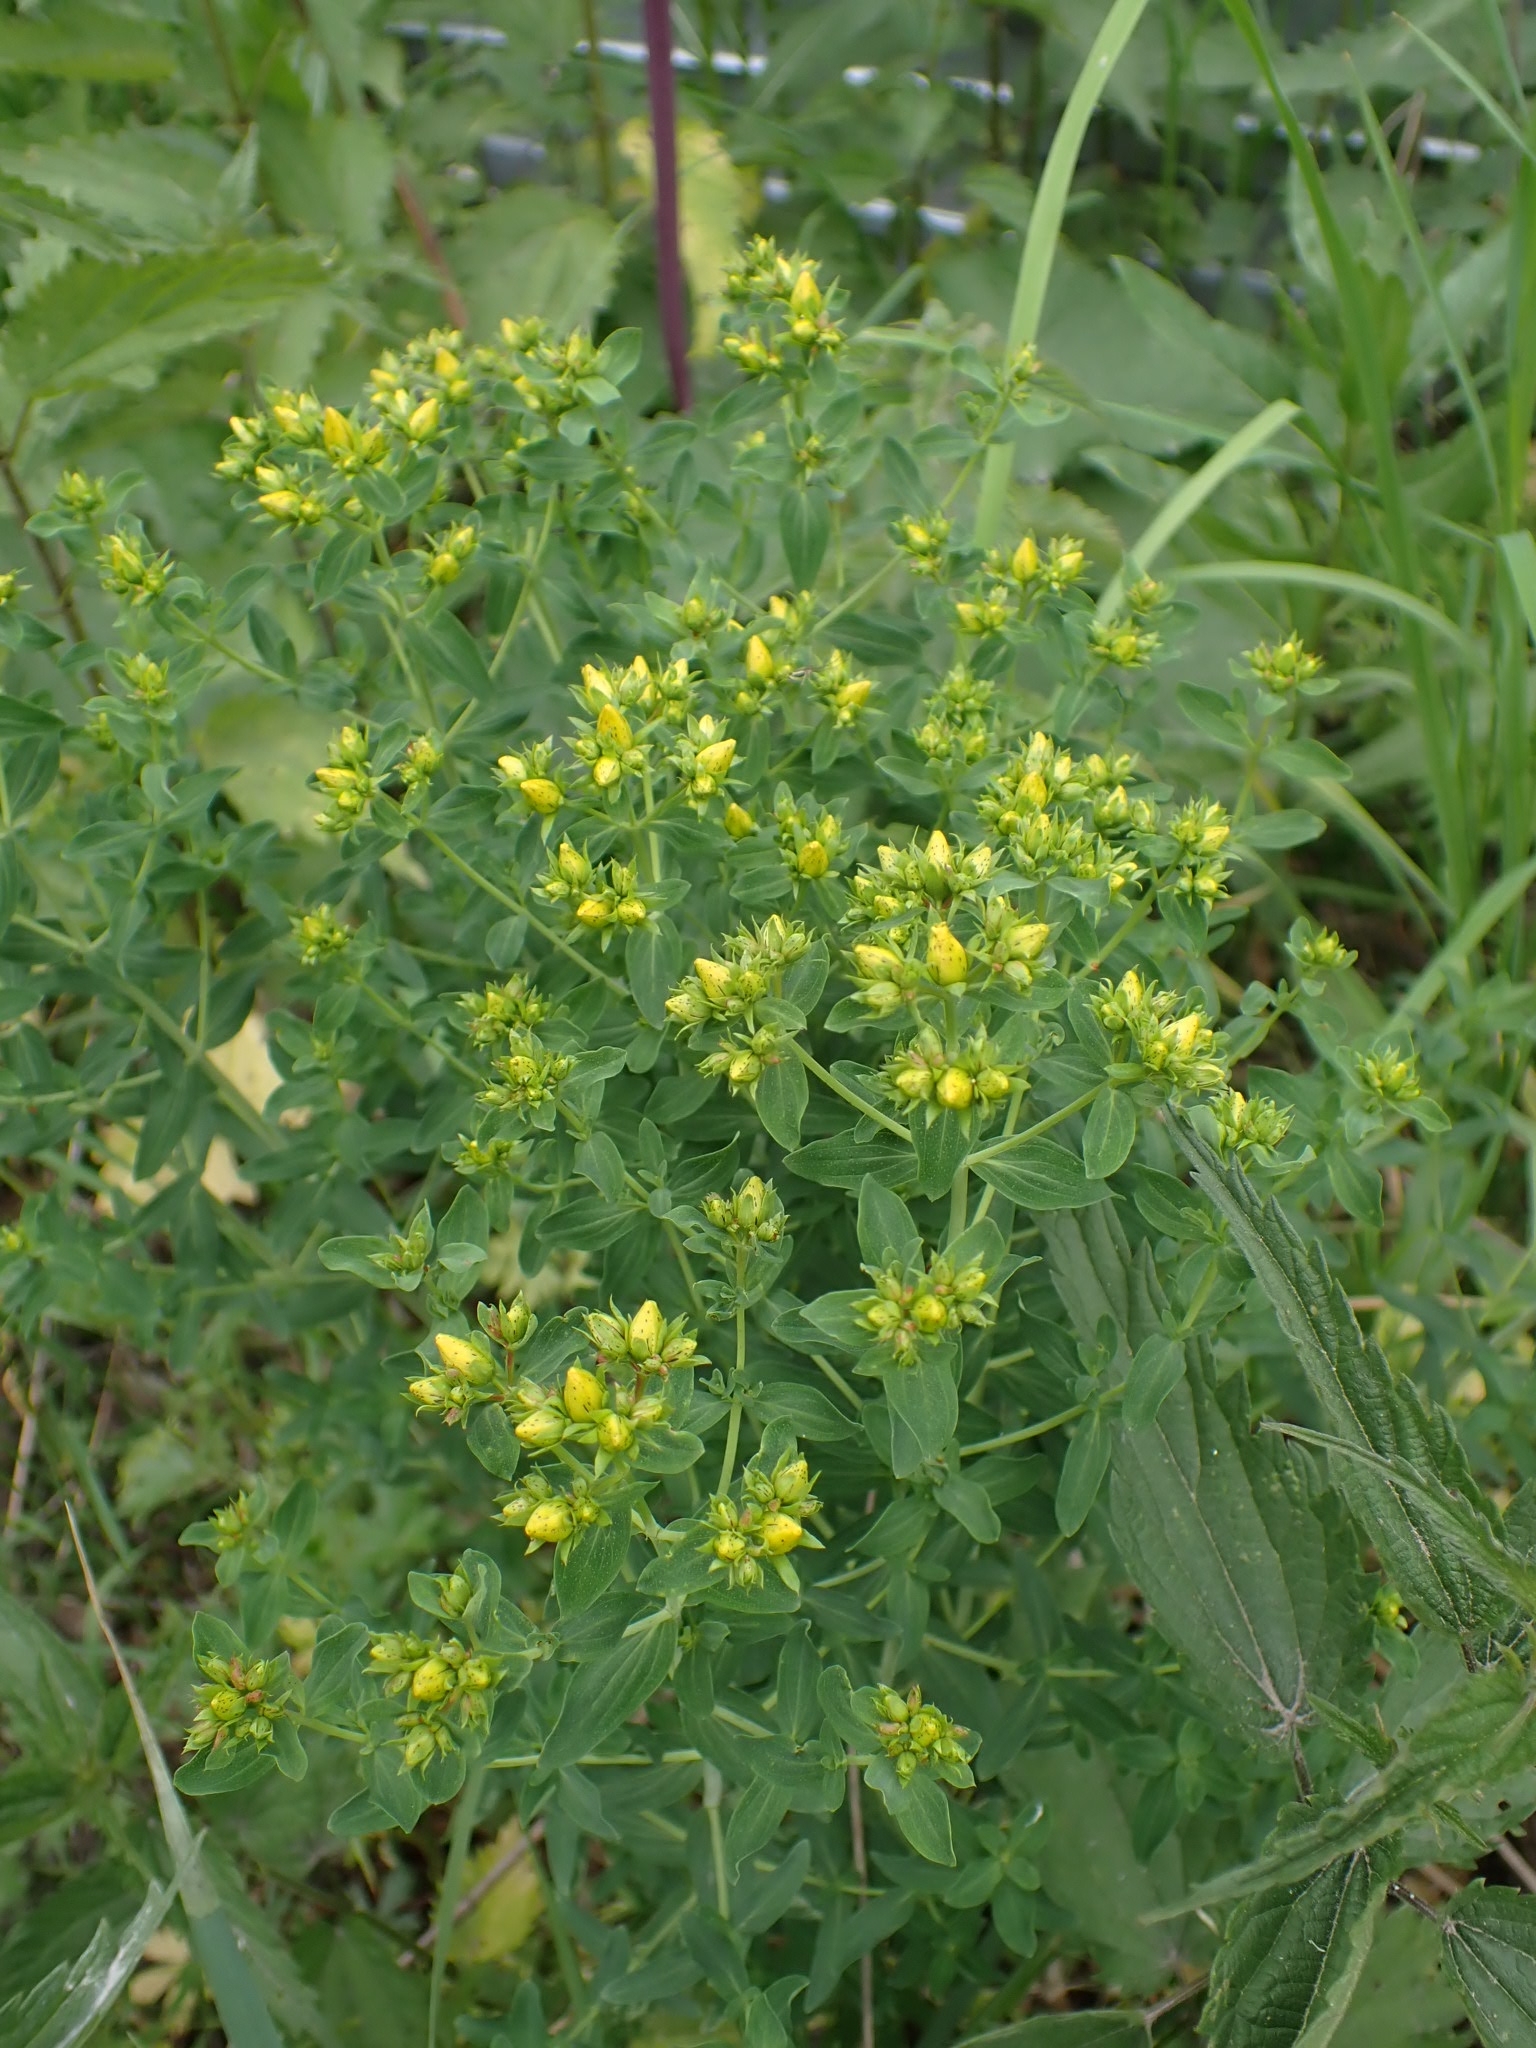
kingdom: Plantae
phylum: Tracheophyta
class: Magnoliopsida
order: Malpighiales
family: Hypericaceae
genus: Hypericum
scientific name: Hypericum perforatum
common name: Common st. johnswort
